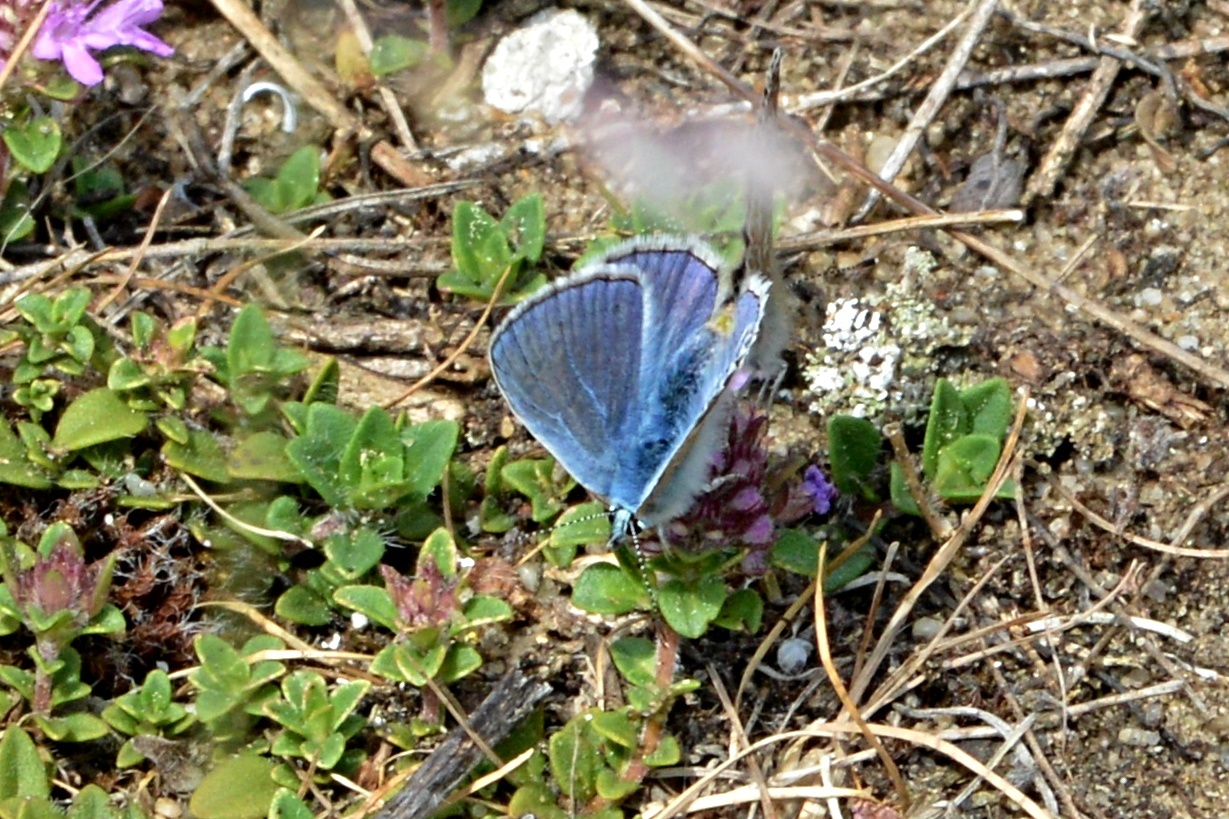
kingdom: Animalia
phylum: Arthropoda
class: Insecta
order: Lepidoptera
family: Lycaenidae
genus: Polyommatus
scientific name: Polyommatus icarus
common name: Common blue
